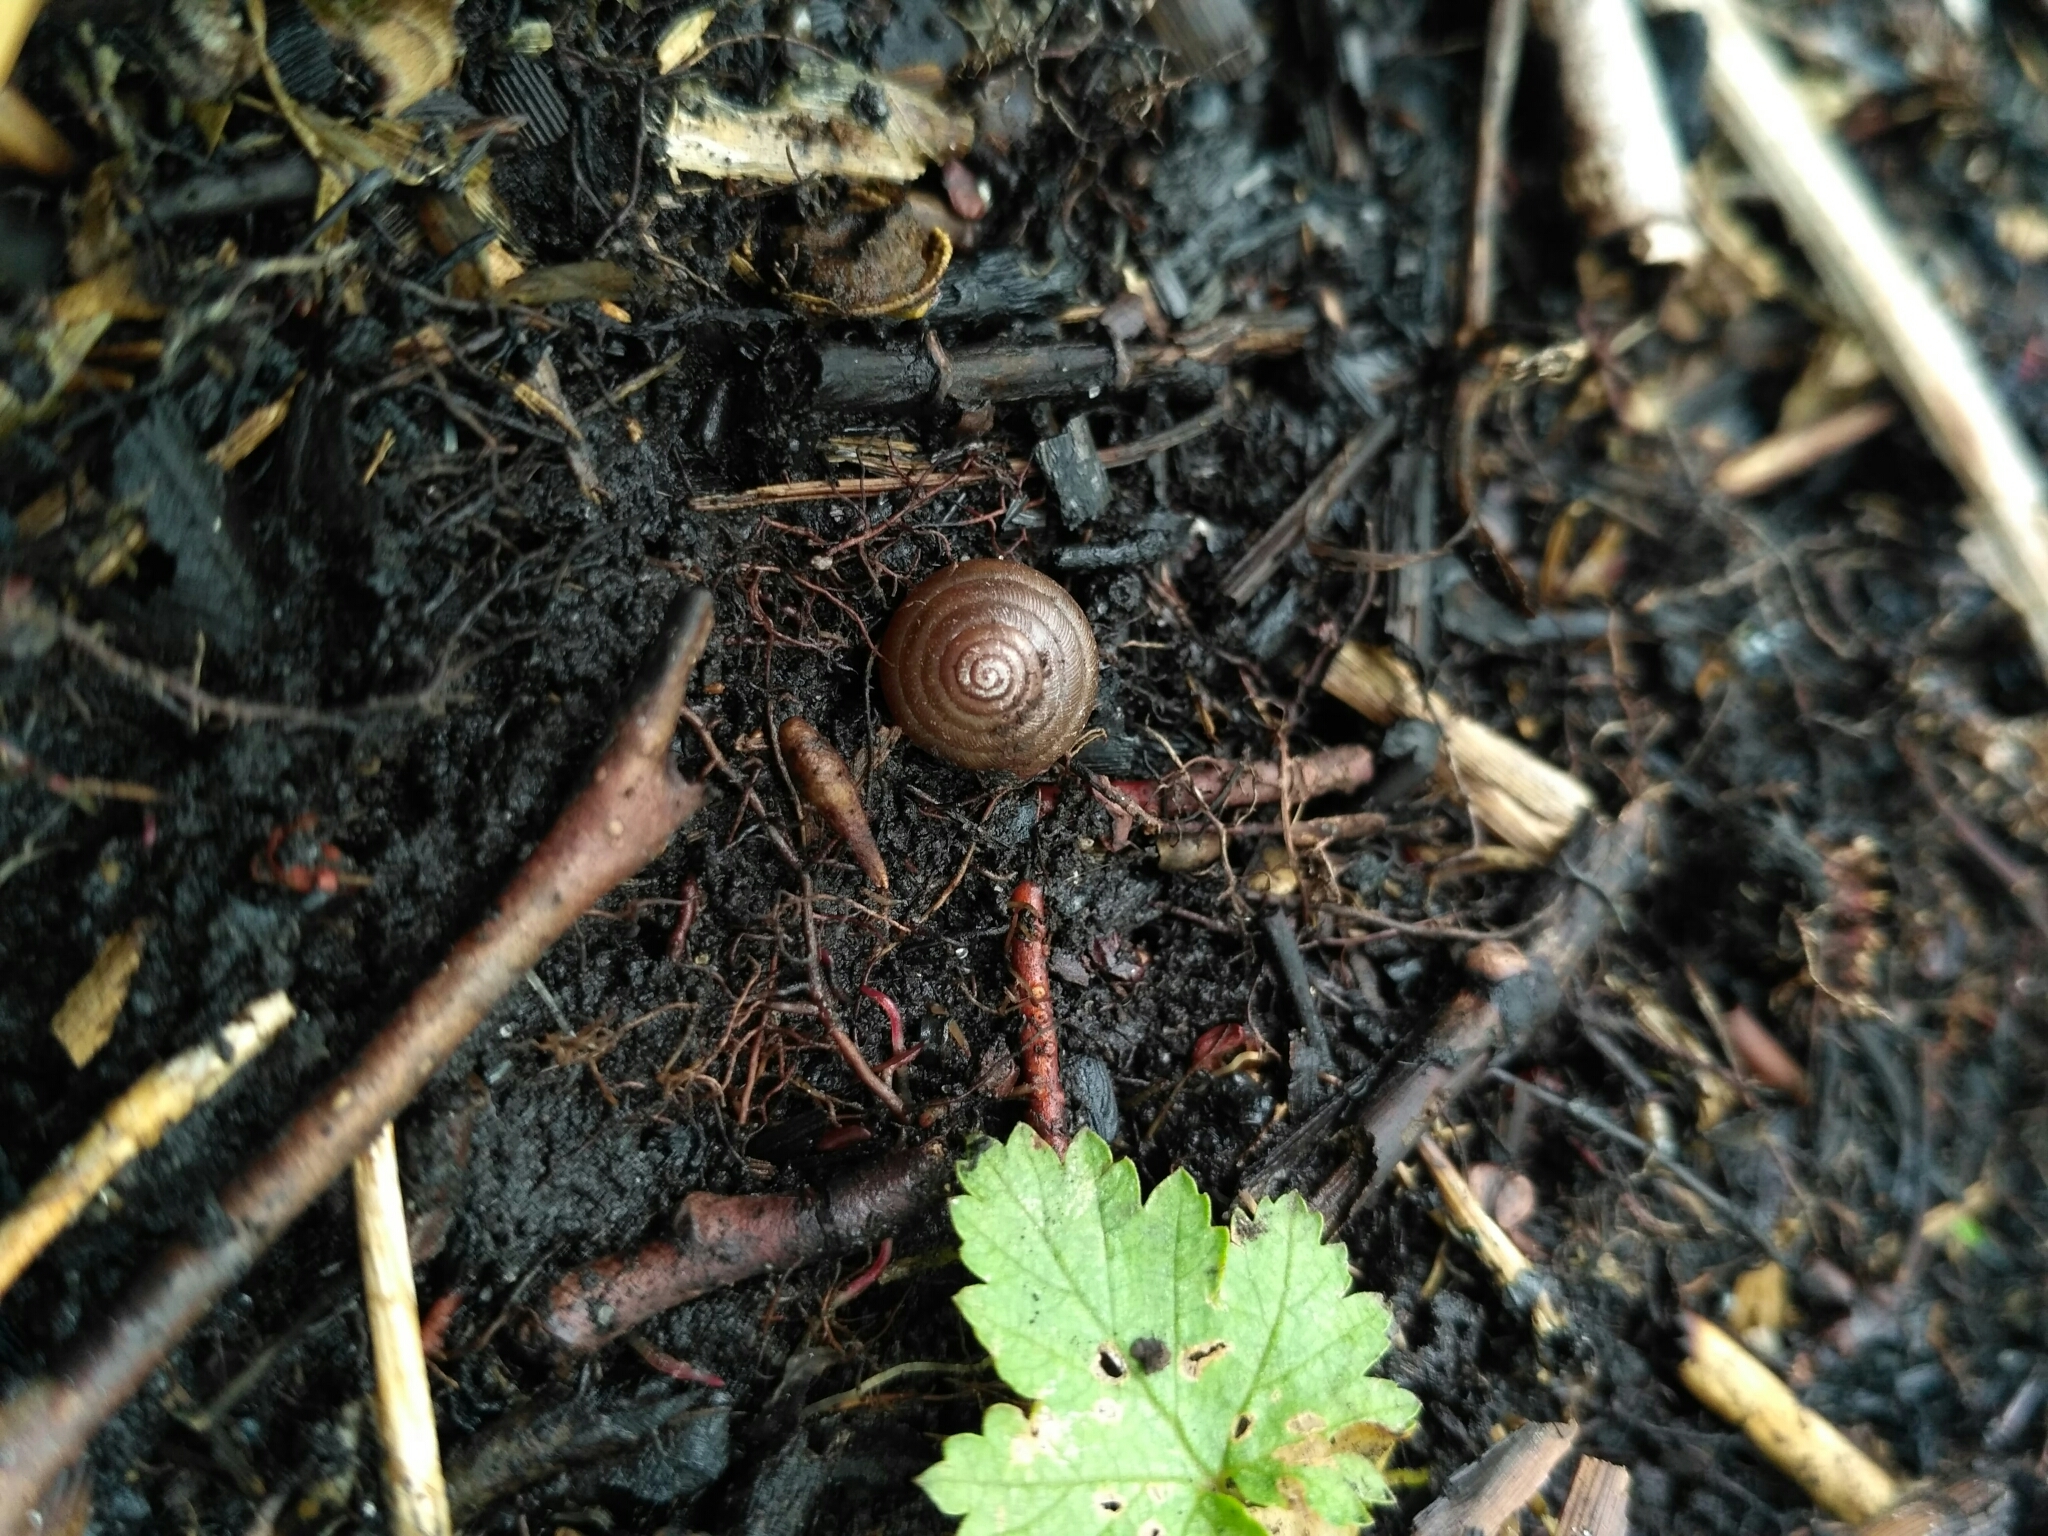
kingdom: Animalia
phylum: Mollusca
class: Gastropoda
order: Stylommatophora
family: Hygromiidae
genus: Perforatella
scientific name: Perforatella bidentata
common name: Double-tooth hairy snail
